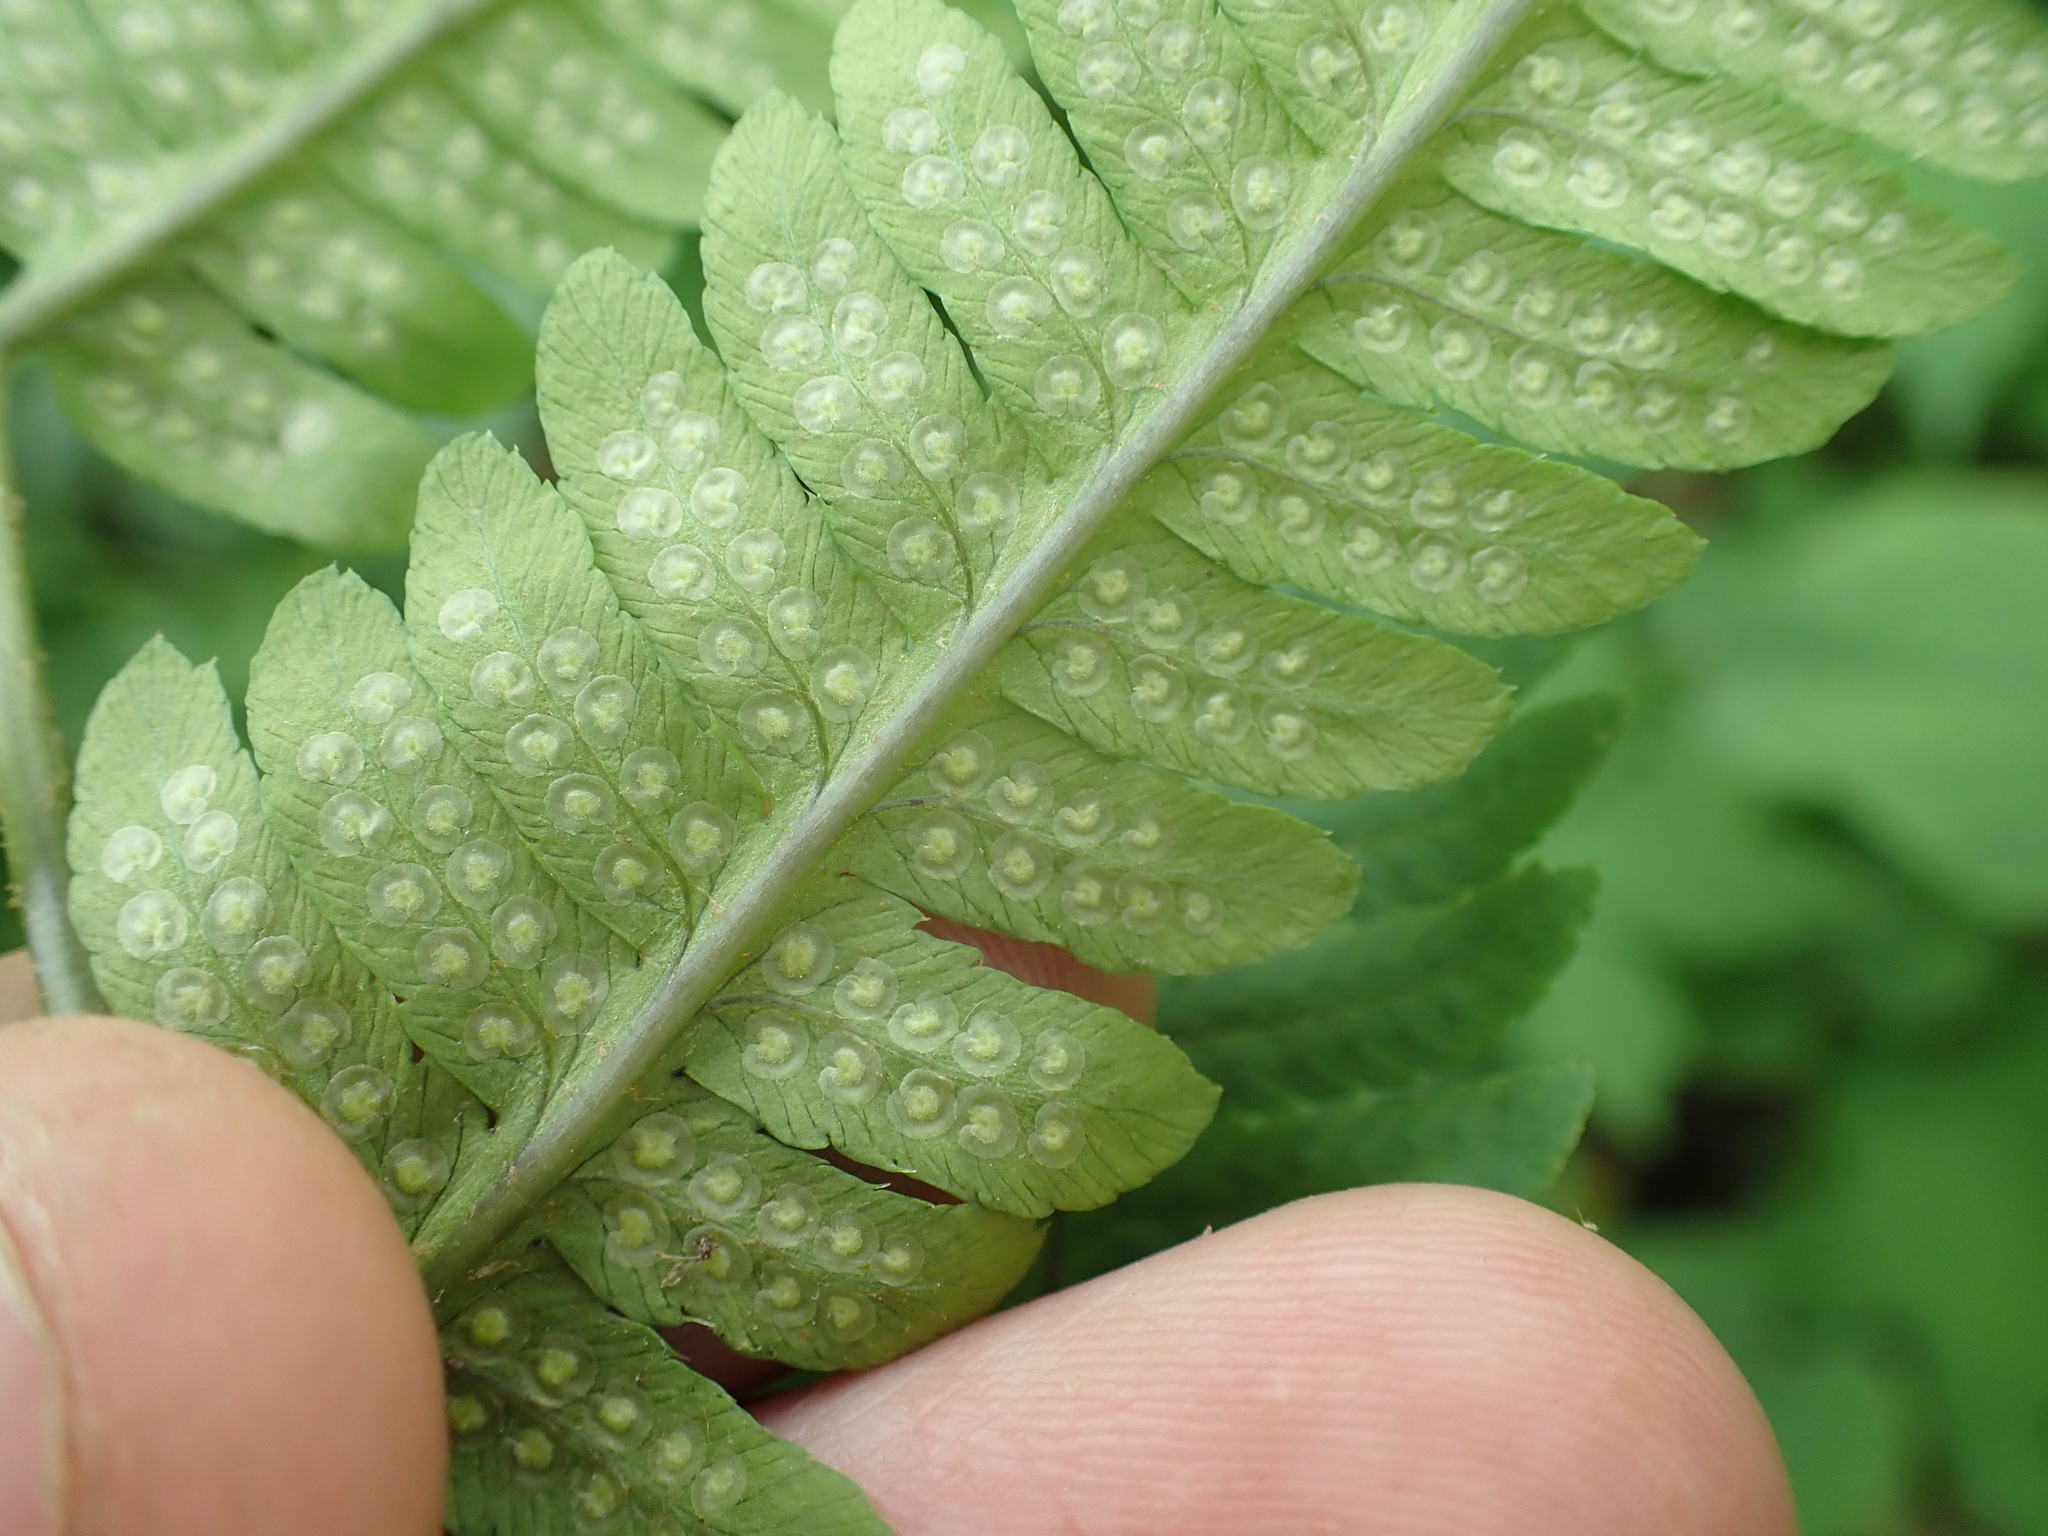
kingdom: Plantae
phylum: Tracheophyta
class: Polypodiopsida
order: Polypodiales
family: Dryopteridaceae
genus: Dryopteris
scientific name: Dryopteris goldieana
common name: Goldie's fern
